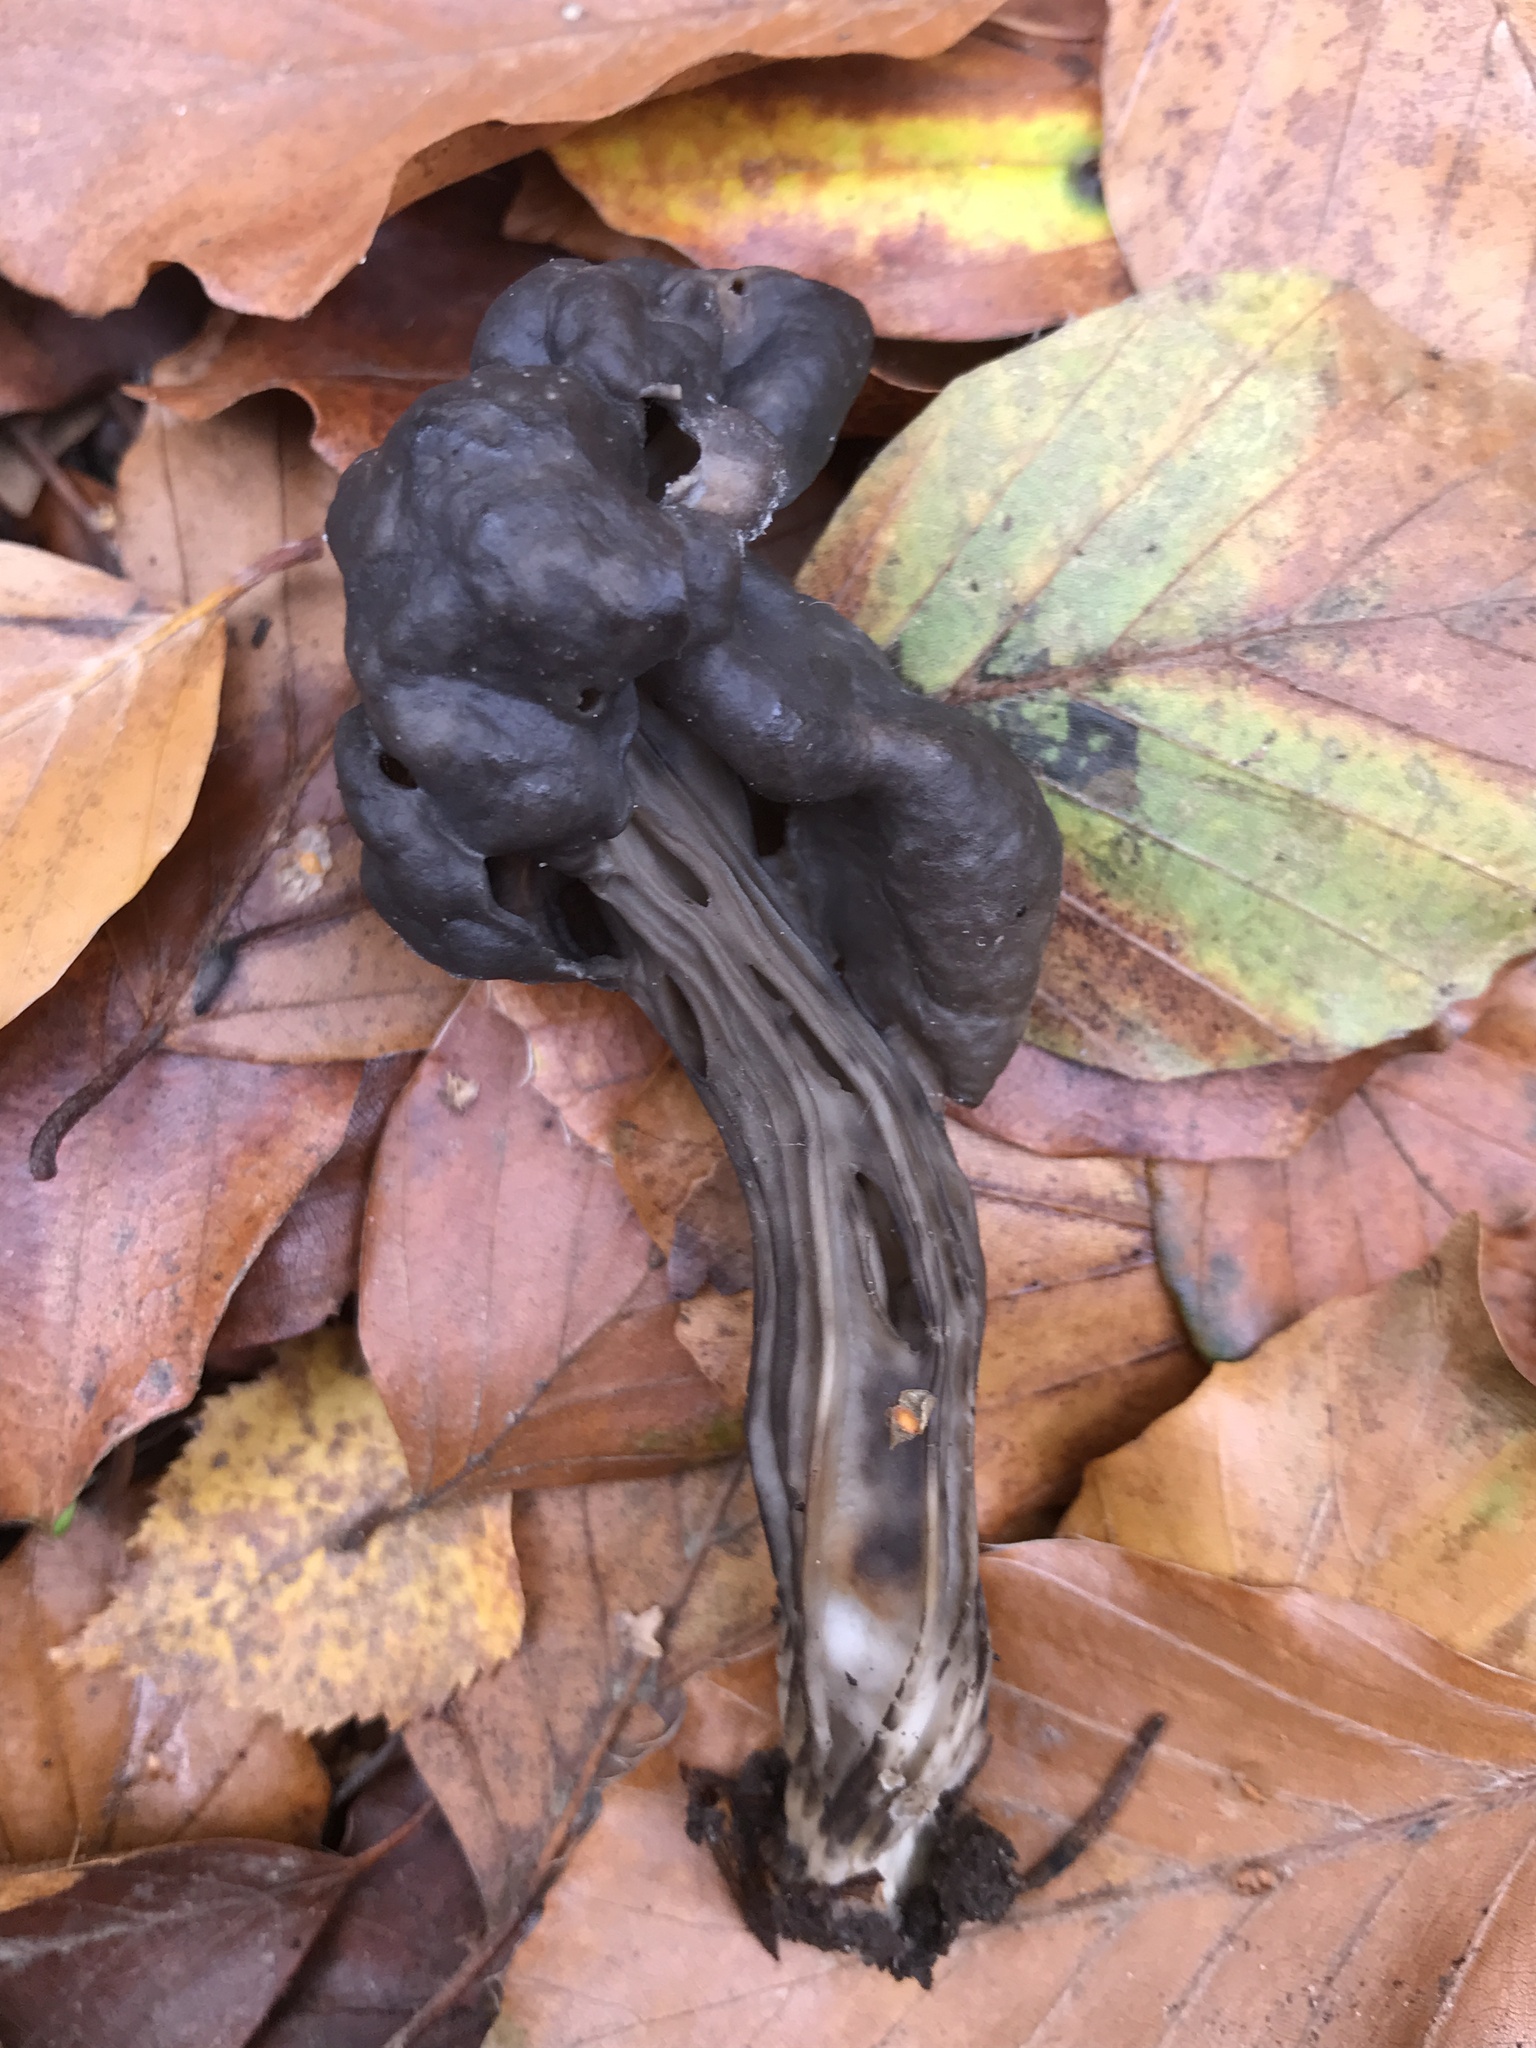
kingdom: Fungi
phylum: Ascomycota
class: Pezizomycetes
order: Pezizales
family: Helvellaceae
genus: Helvella
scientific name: Helvella lacunosa
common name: Elfin saddle
